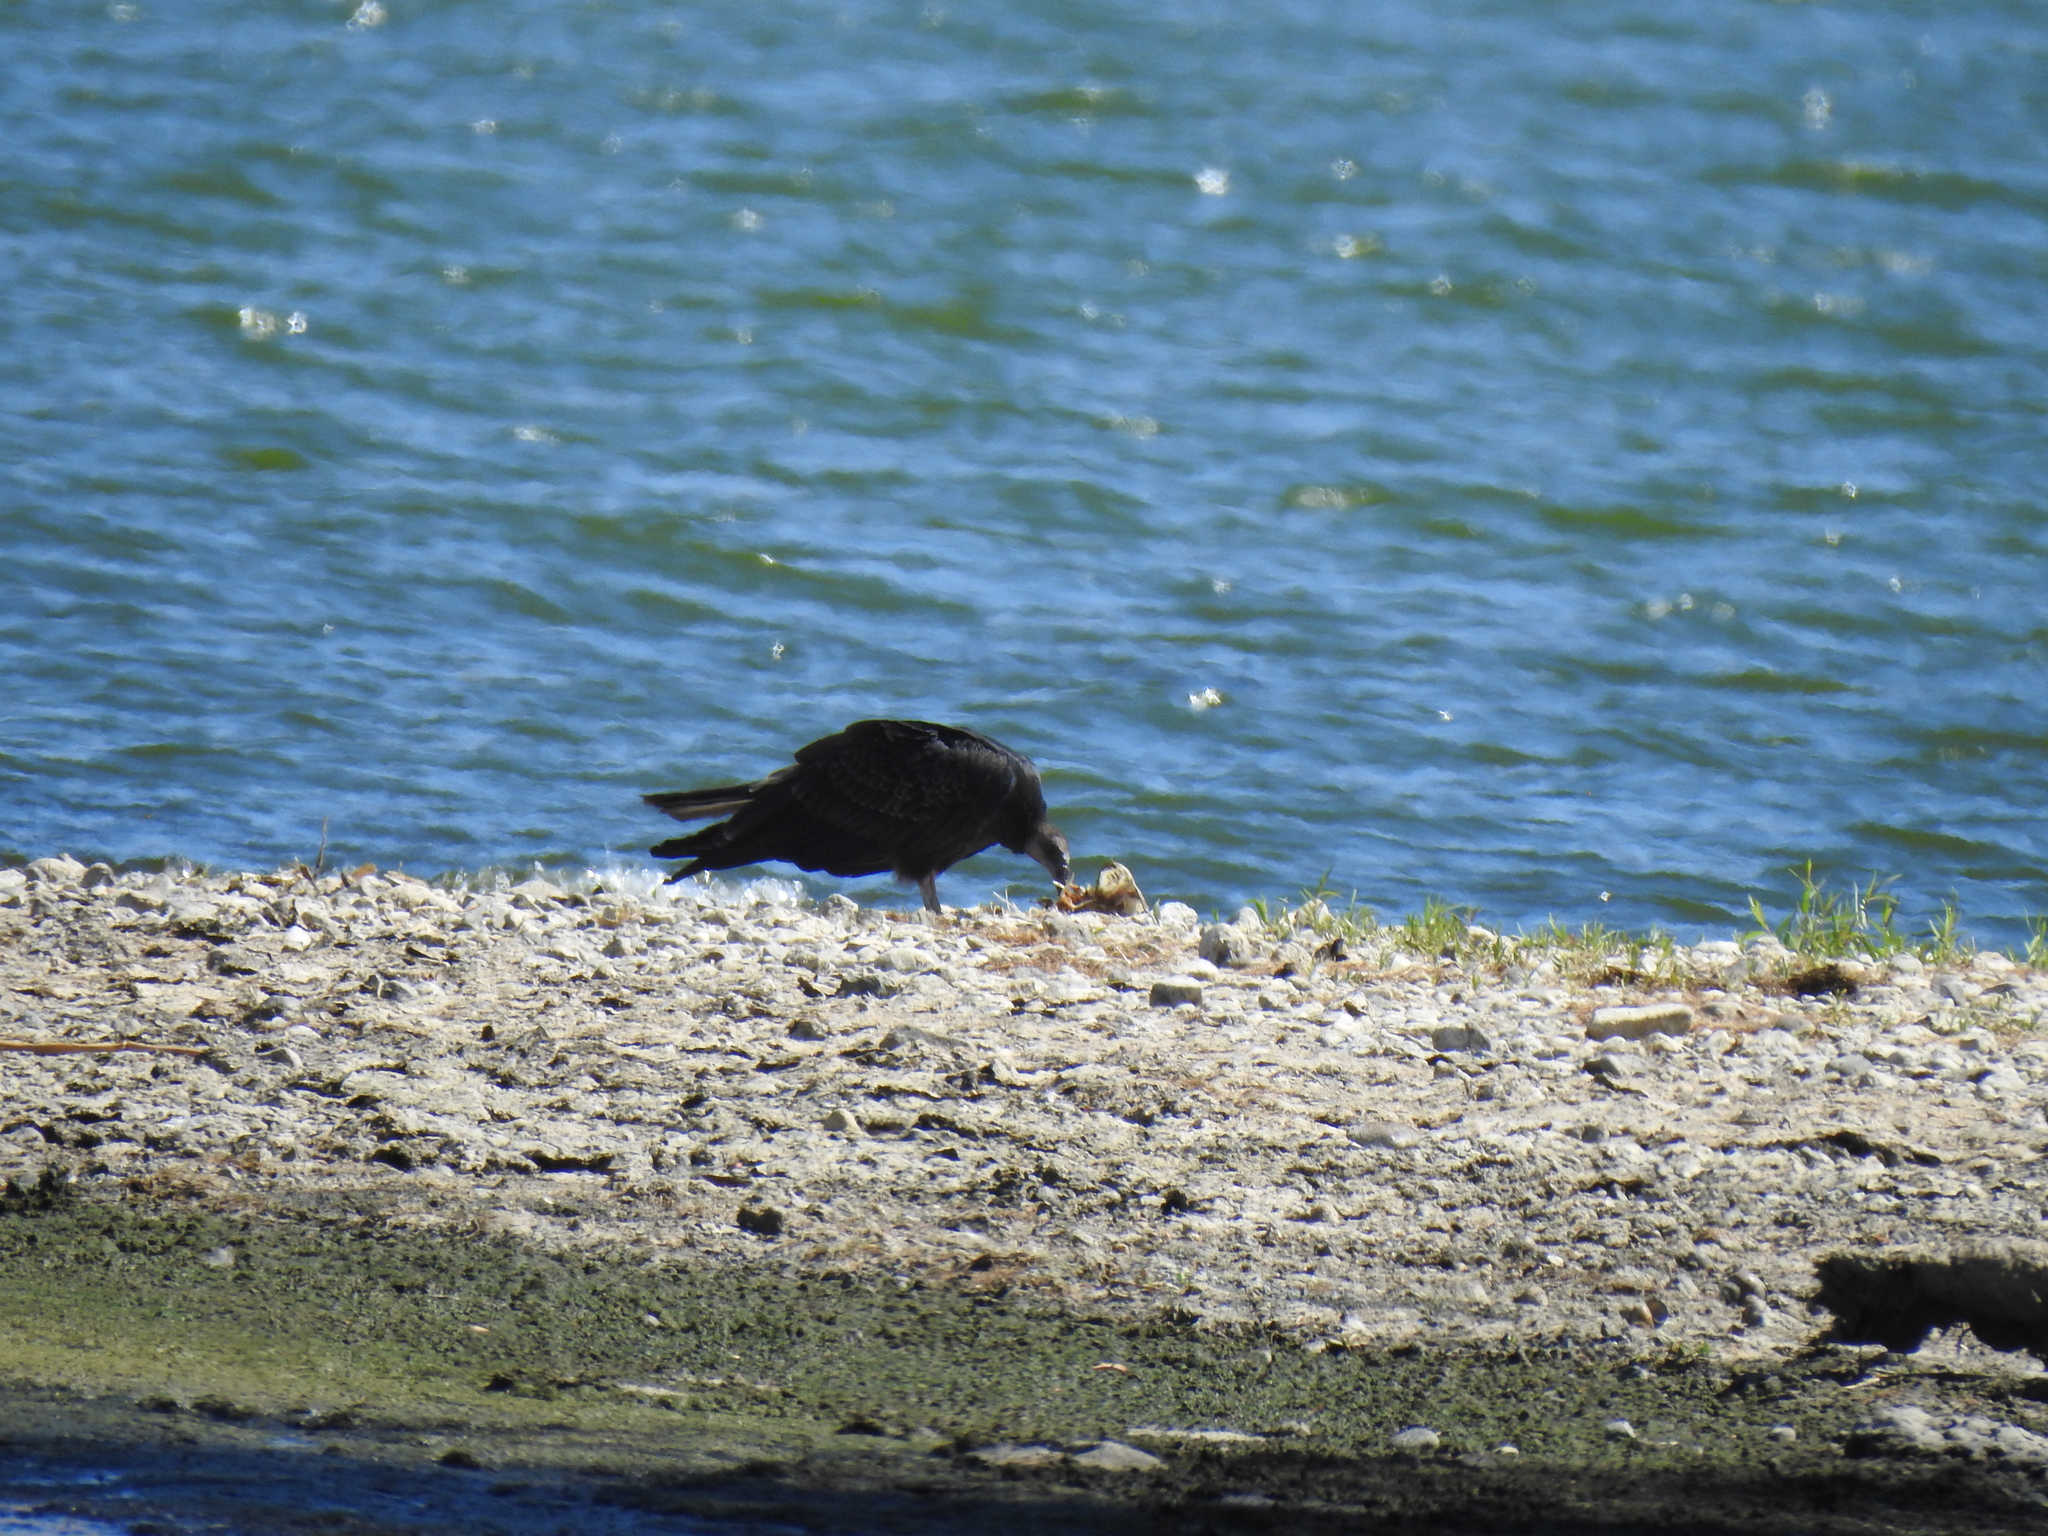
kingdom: Animalia
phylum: Chordata
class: Aves
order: Accipitriformes
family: Cathartidae
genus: Cathartes
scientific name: Cathartes aura
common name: Turkey vulture
